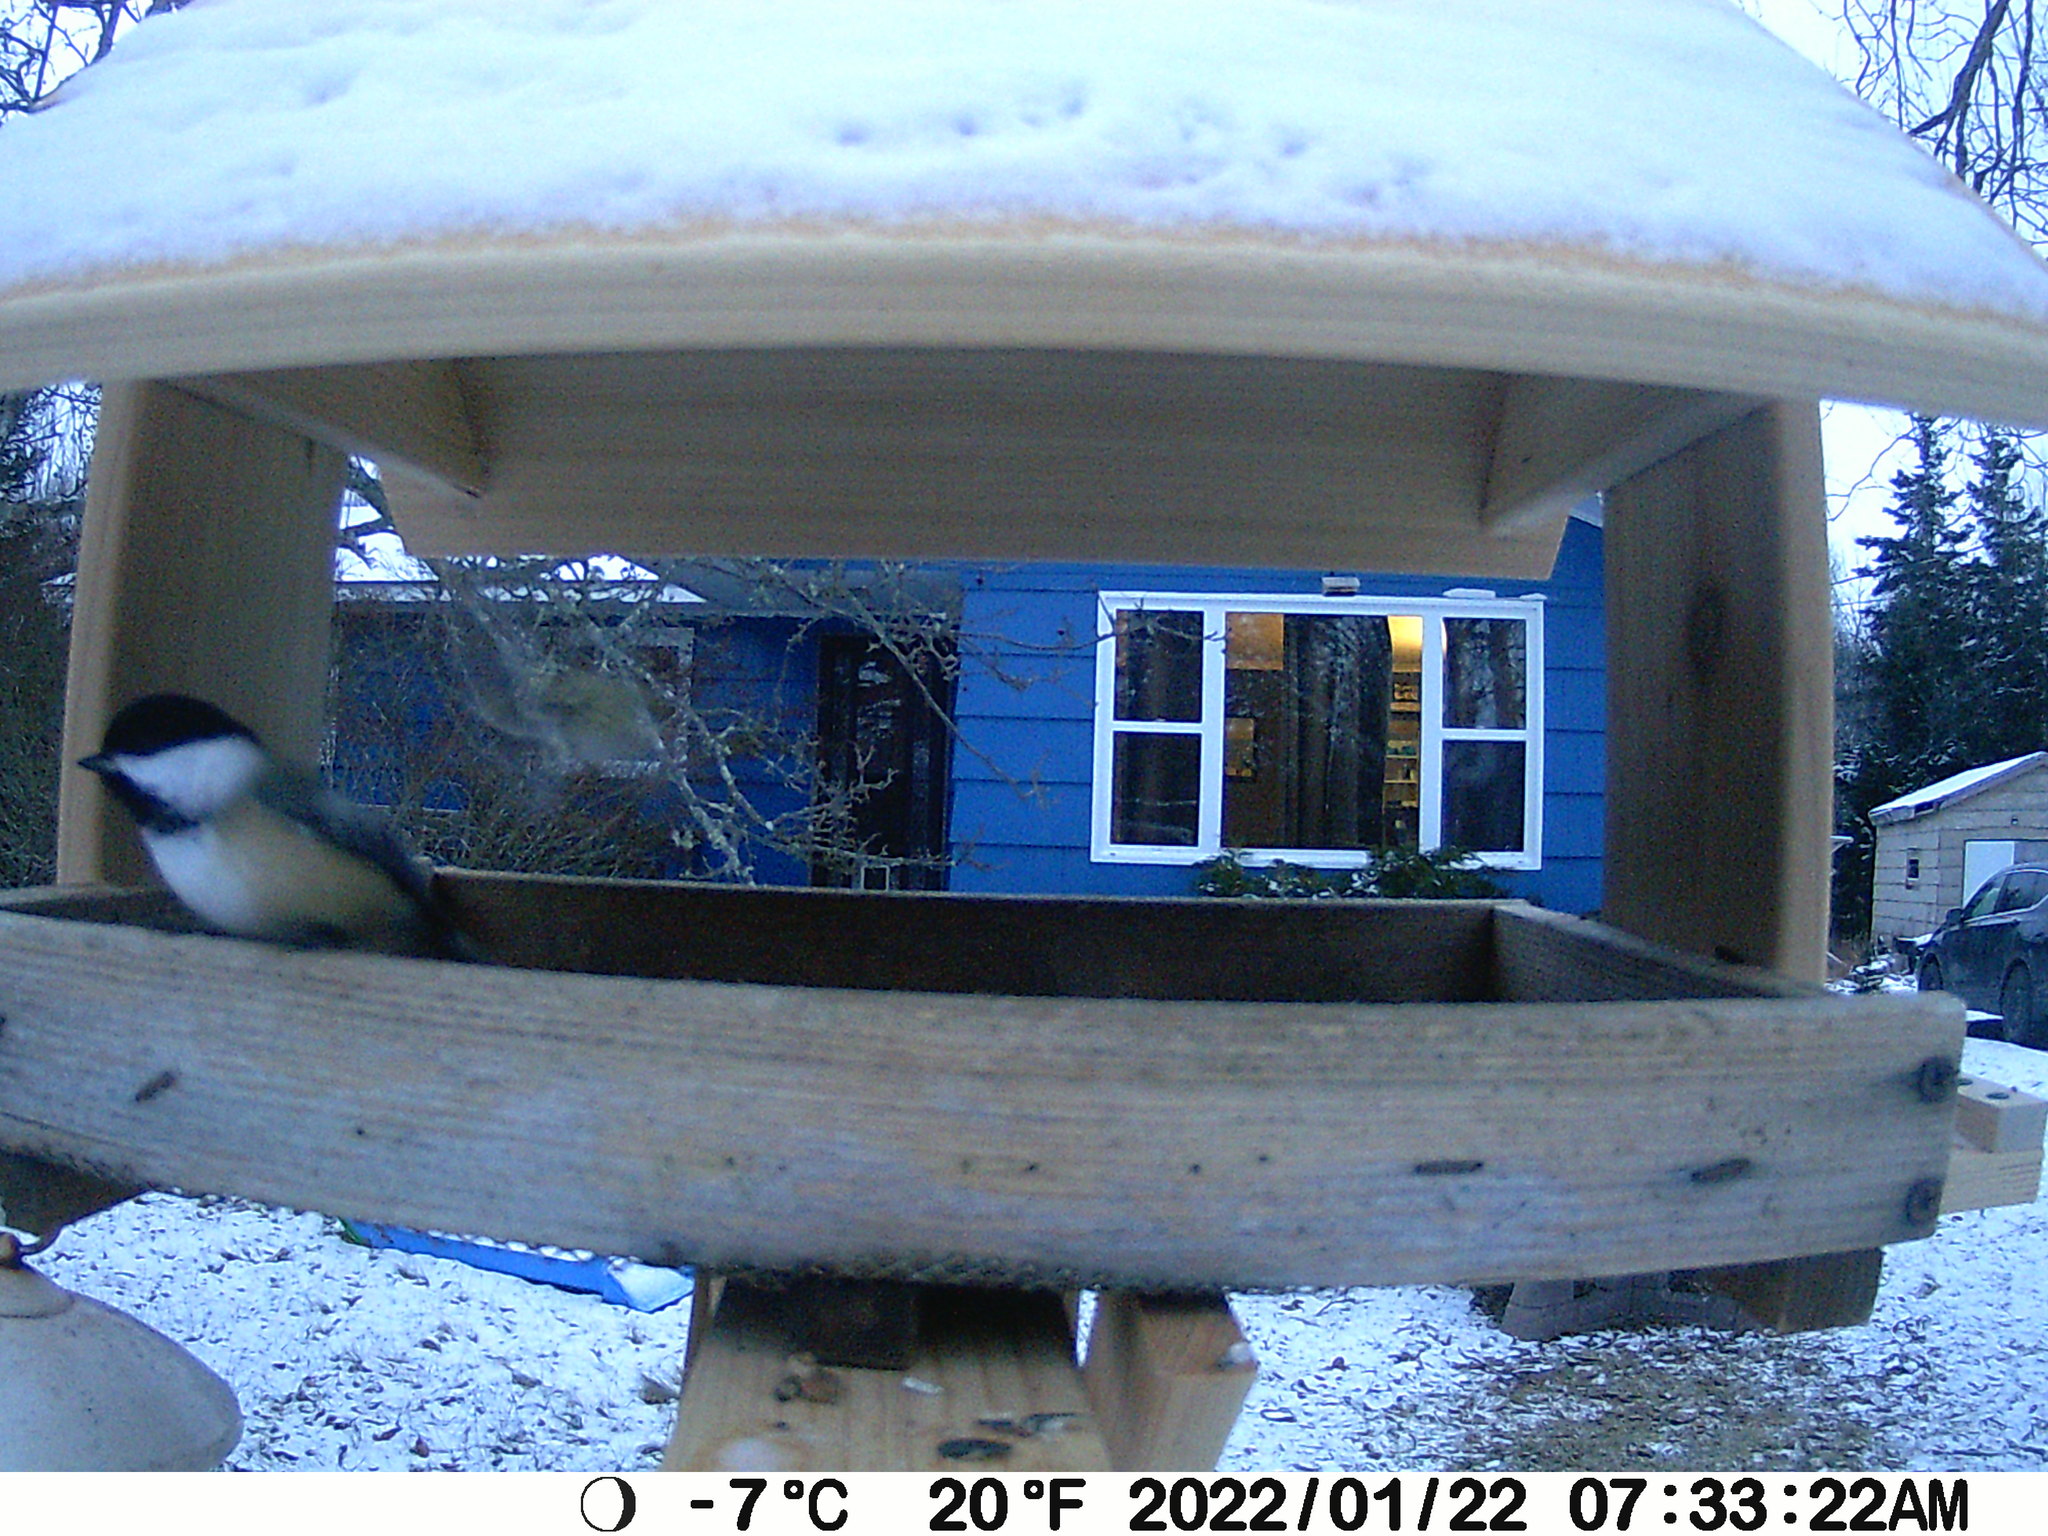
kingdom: Animalia
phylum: Chordata
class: Aves
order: Passeriformes
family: Paridae
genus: Poecile
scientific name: Poecile atricapillus
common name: Black-capped chickadee
